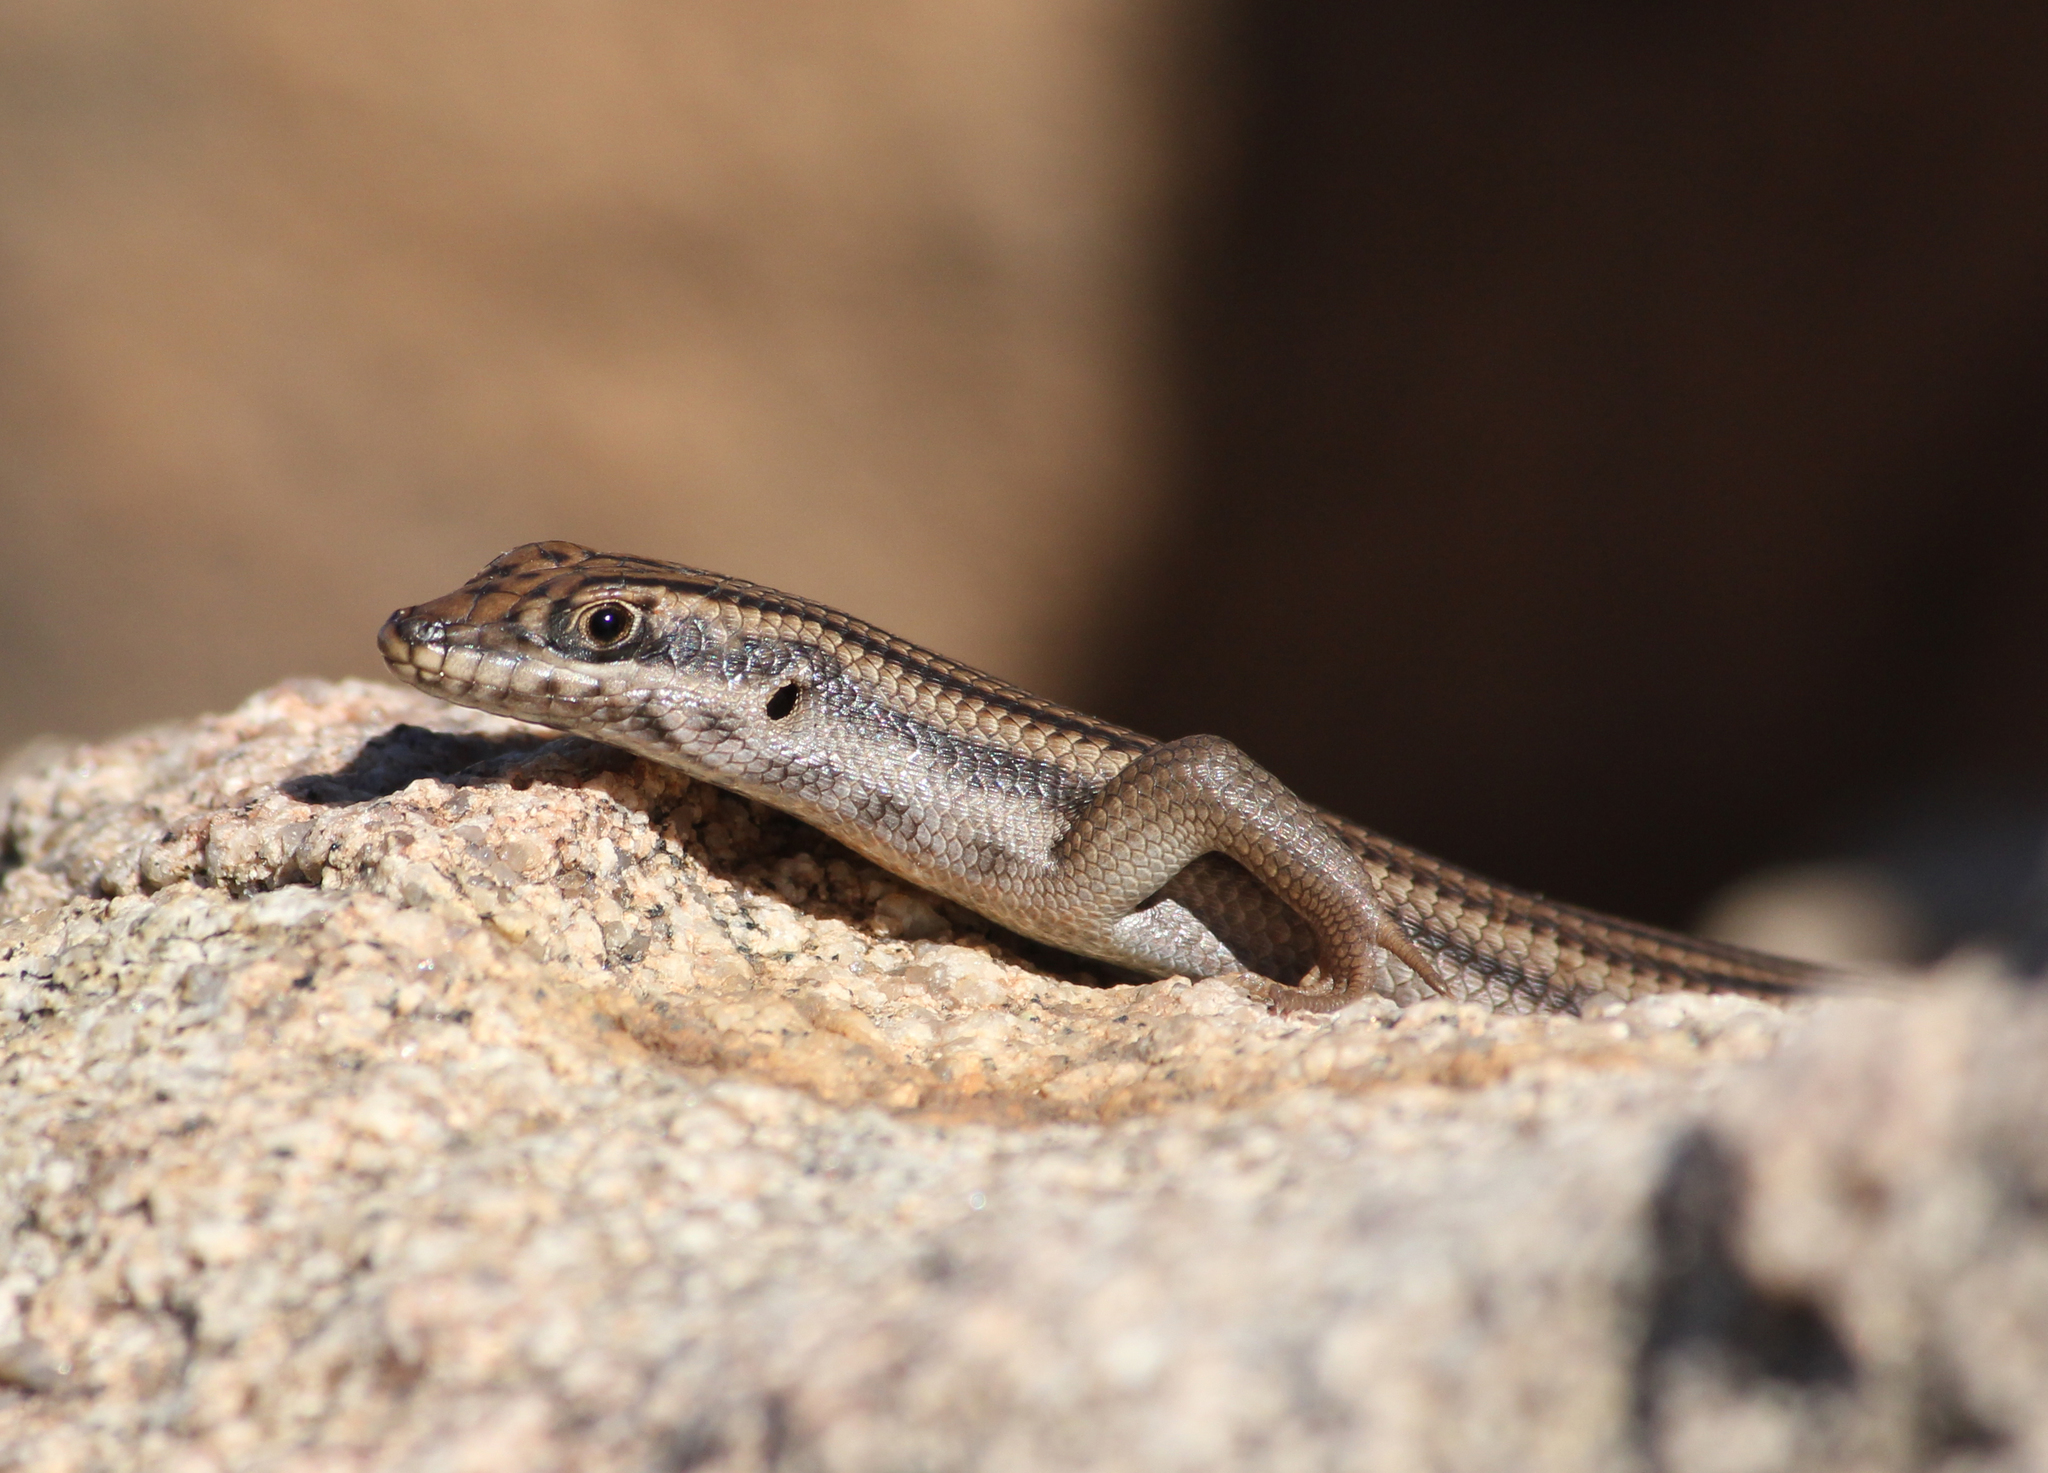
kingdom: Animalia
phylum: Chordata
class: Squamata
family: Scincidae
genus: Trachylepis
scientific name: Trachylepis sulcata
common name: Western rock skink
